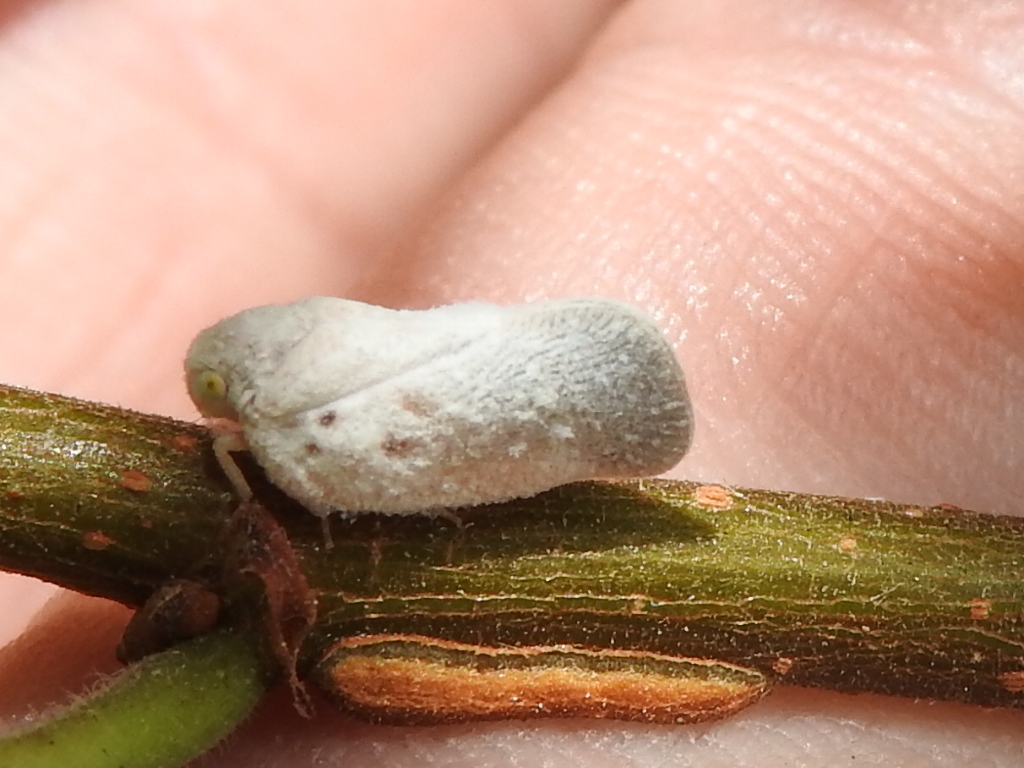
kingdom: Animalia
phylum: Arthropoda
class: Insecta
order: Hemiptera
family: Flatidae
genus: Metcalfa
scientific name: Metcalfa pruinosa
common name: Citrus flatid planthopper
